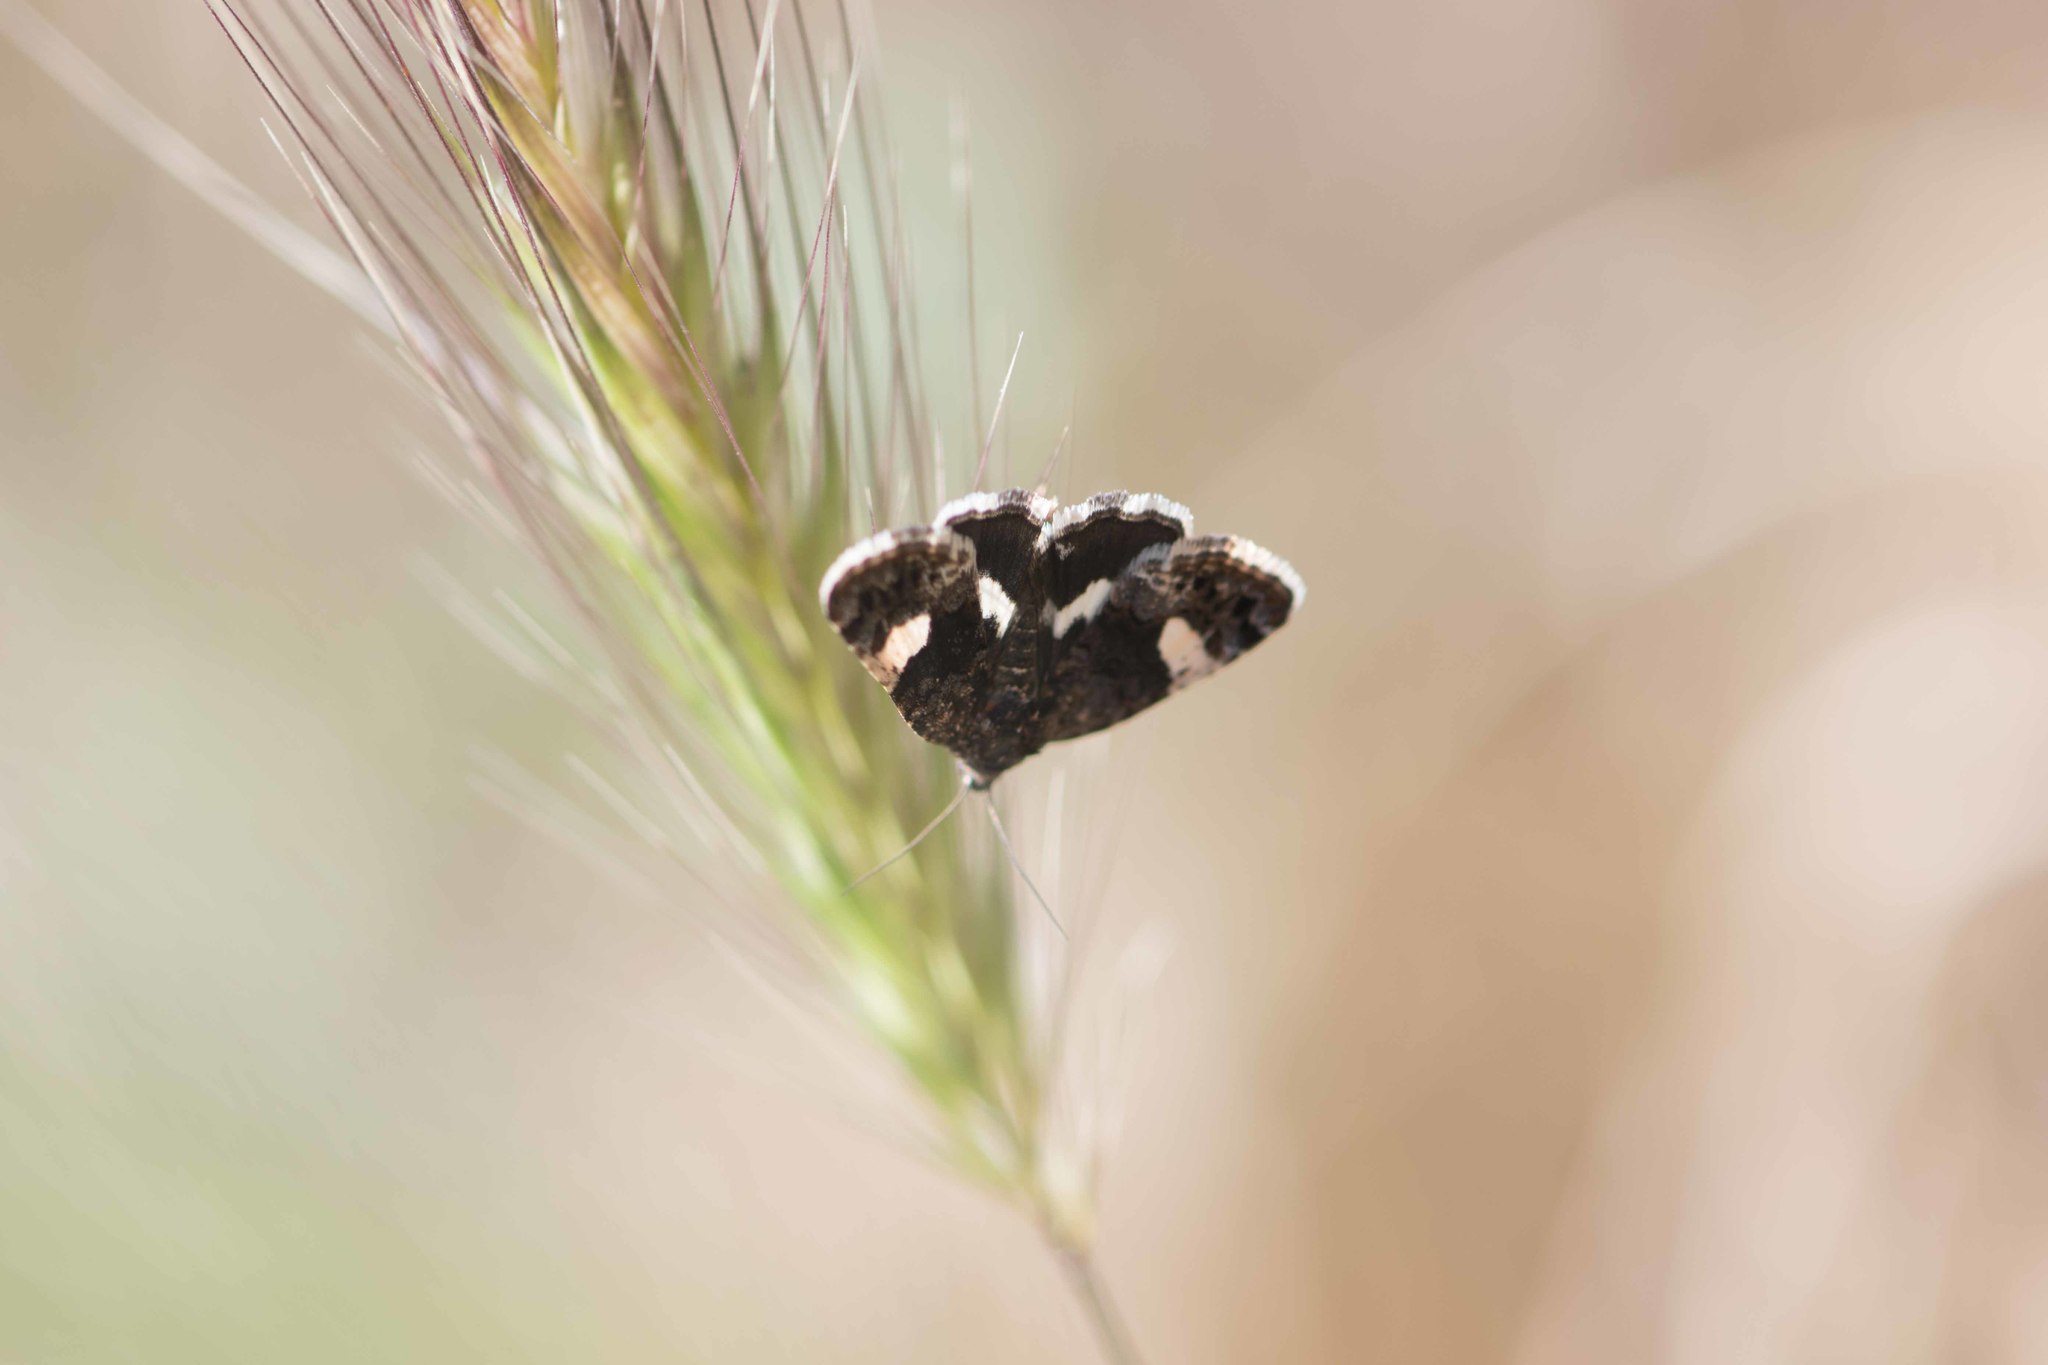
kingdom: Animalia
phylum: Arthropoda
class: Insecta
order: Lepidoptera
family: Erebidae
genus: Tyta
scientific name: Tyta luctuosa
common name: Four-spotted
